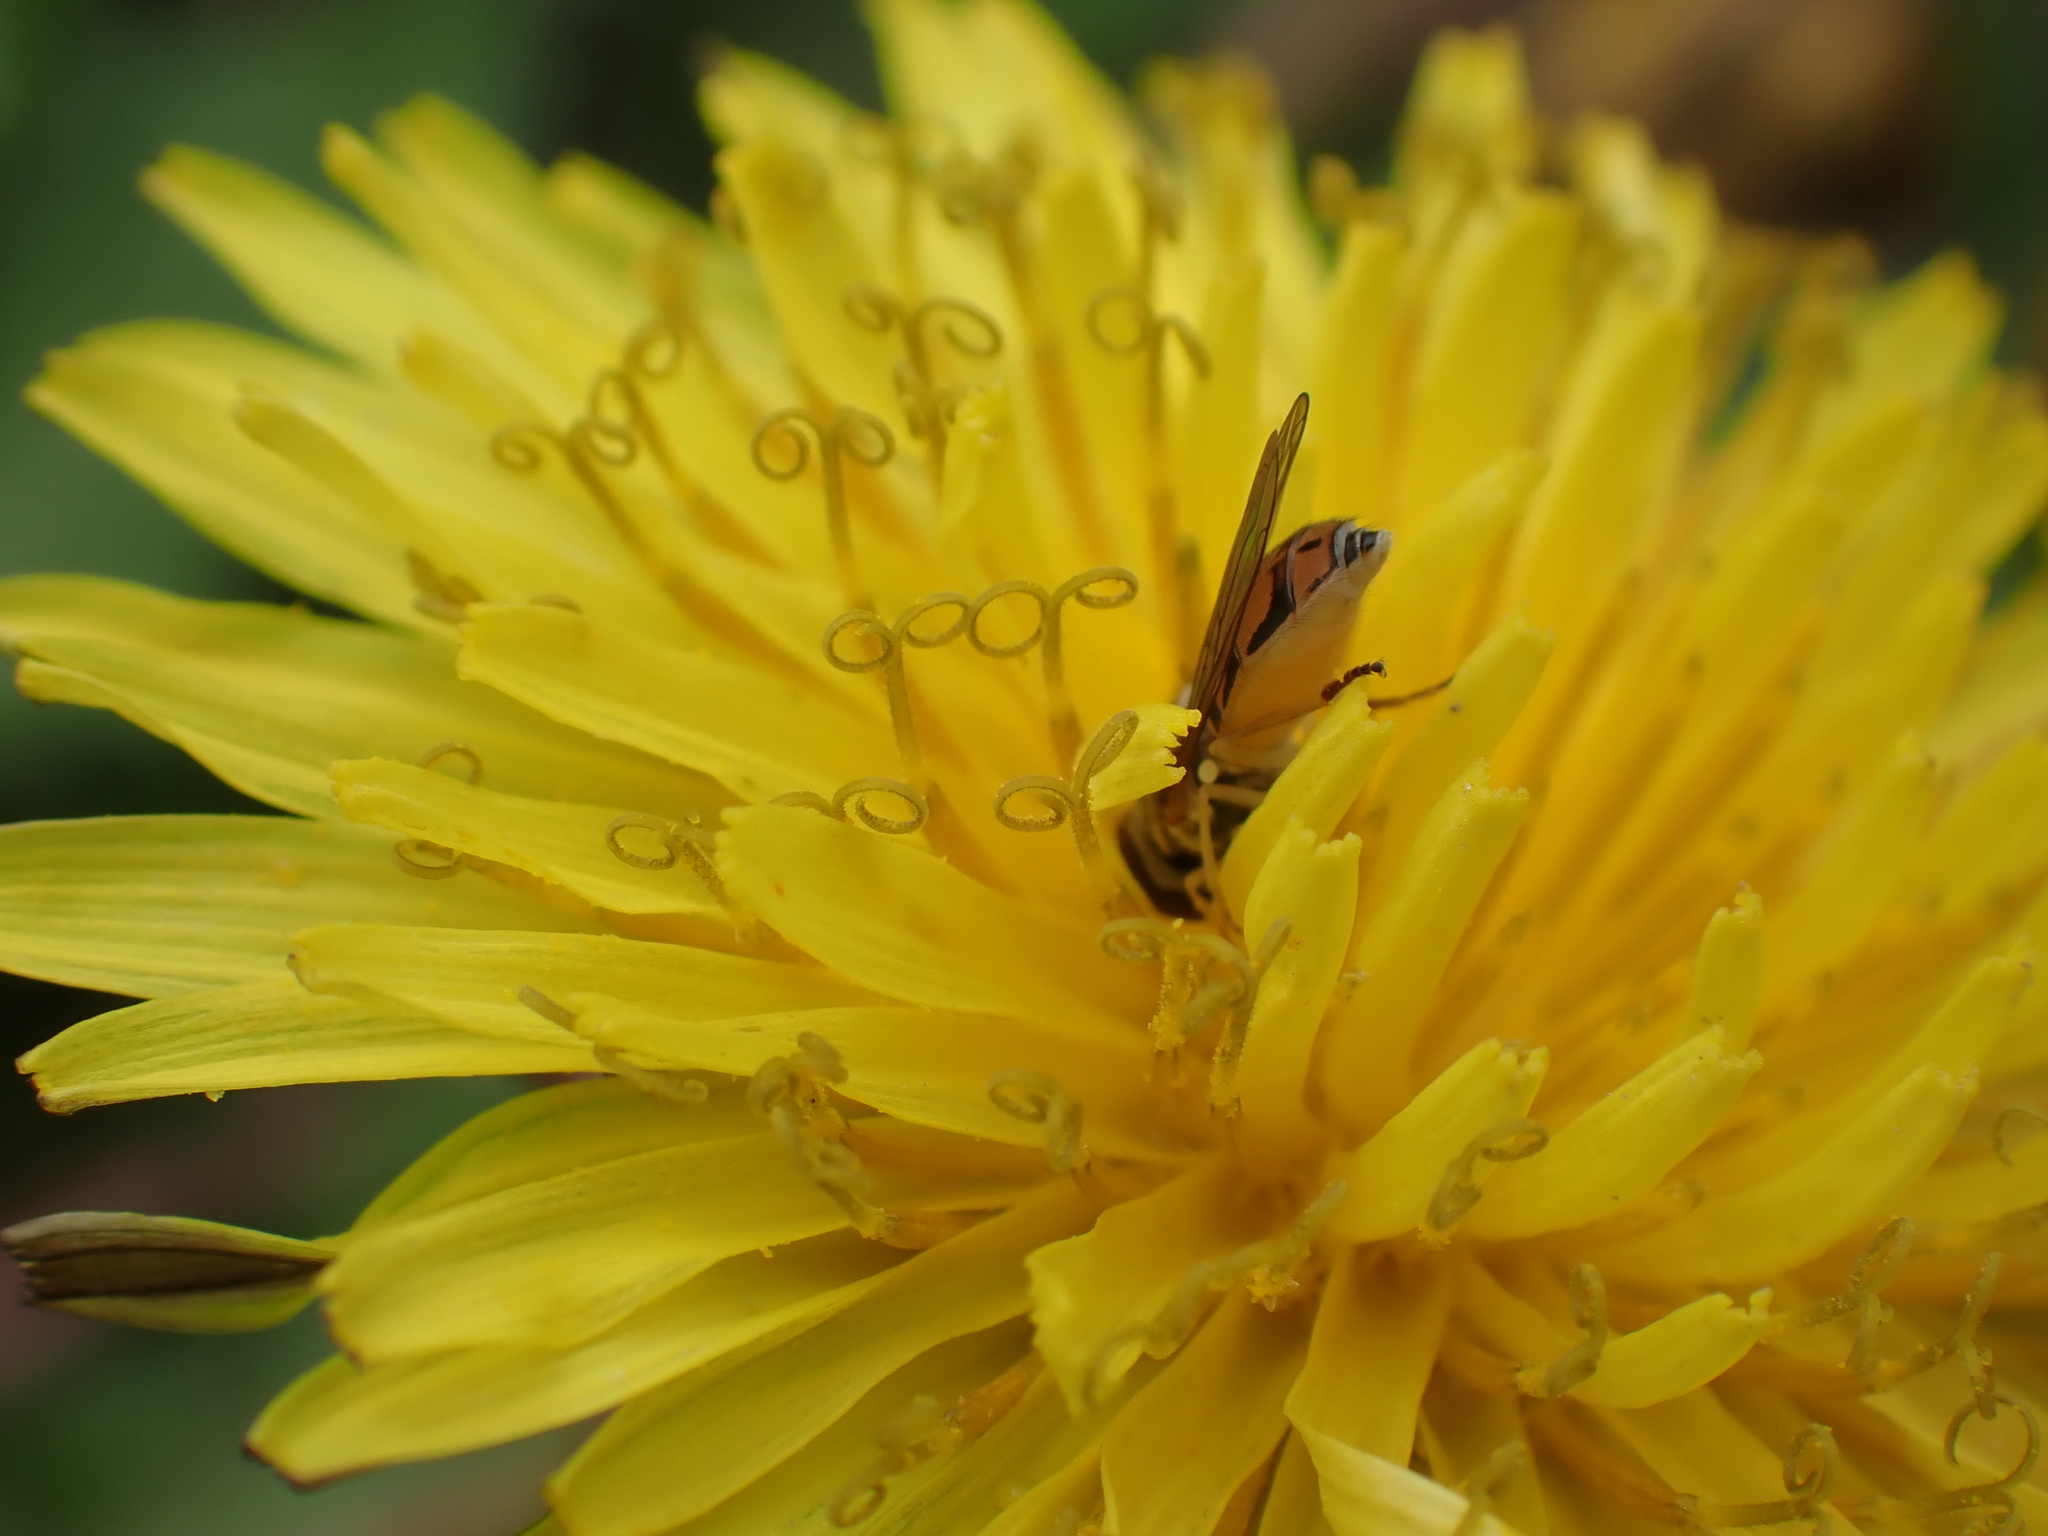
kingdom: Animalia
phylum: Arthropoda
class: Insecta
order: Diptera
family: Syrphidae
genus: Toxomerus
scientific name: Toxomerus marginatus
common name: Syrphid fly
